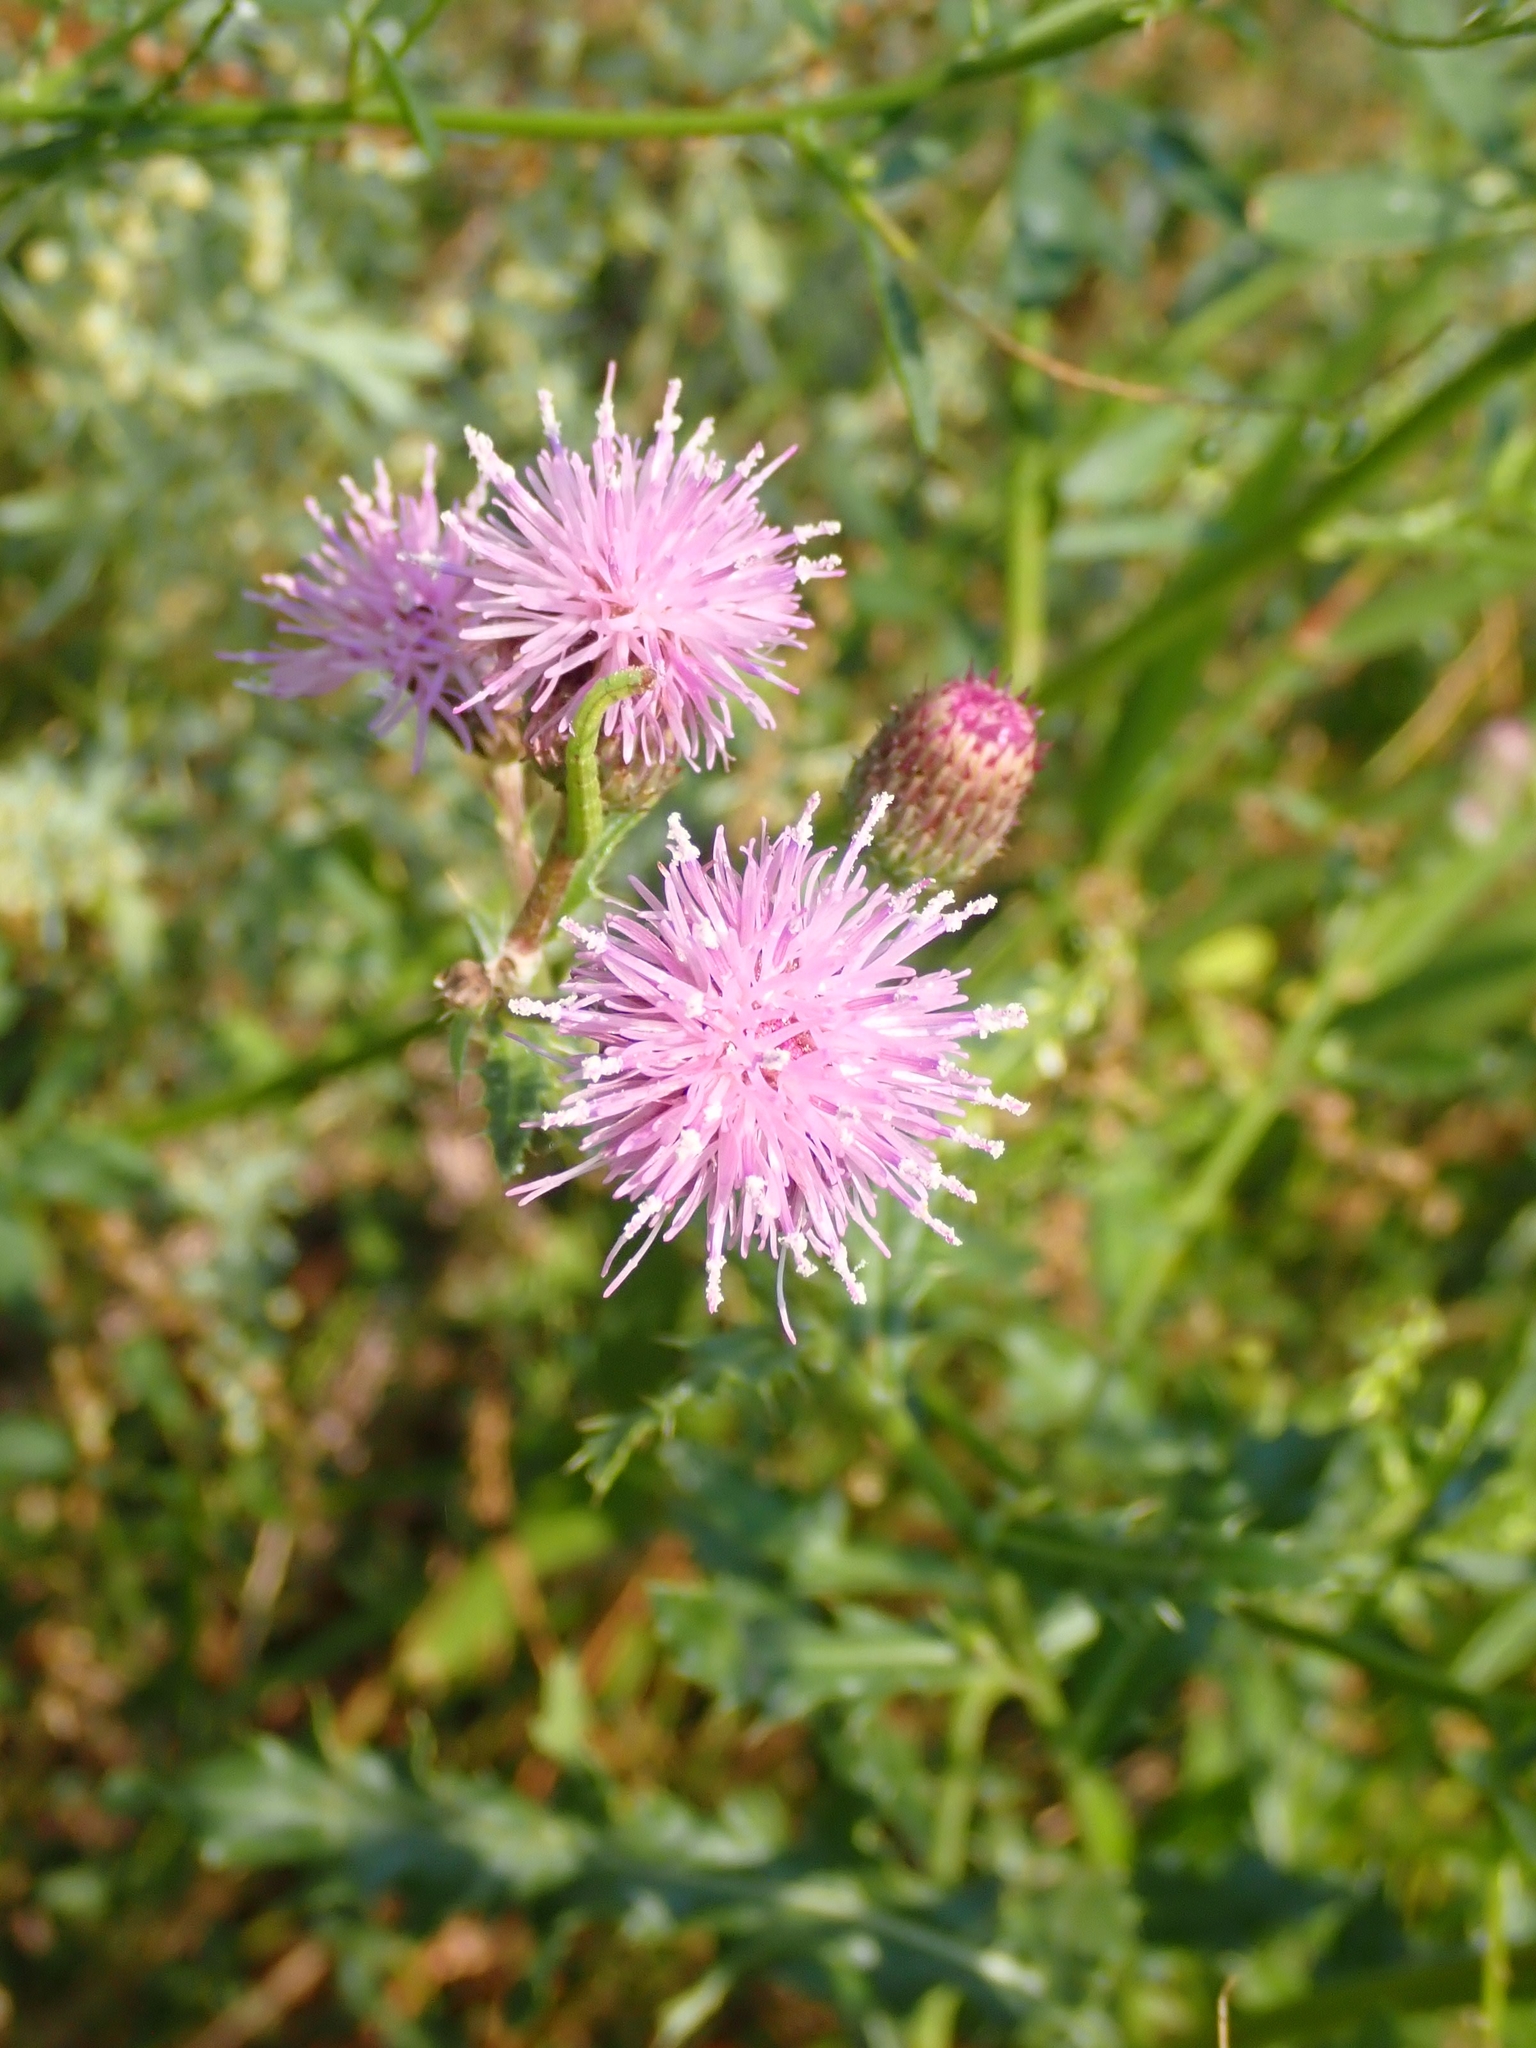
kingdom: Plantae
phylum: Tracheophyta
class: Magnoliopsida
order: Asterales
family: Asteraceae
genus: Cirsium
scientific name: Cirsium arvense
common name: Creeping thistle
